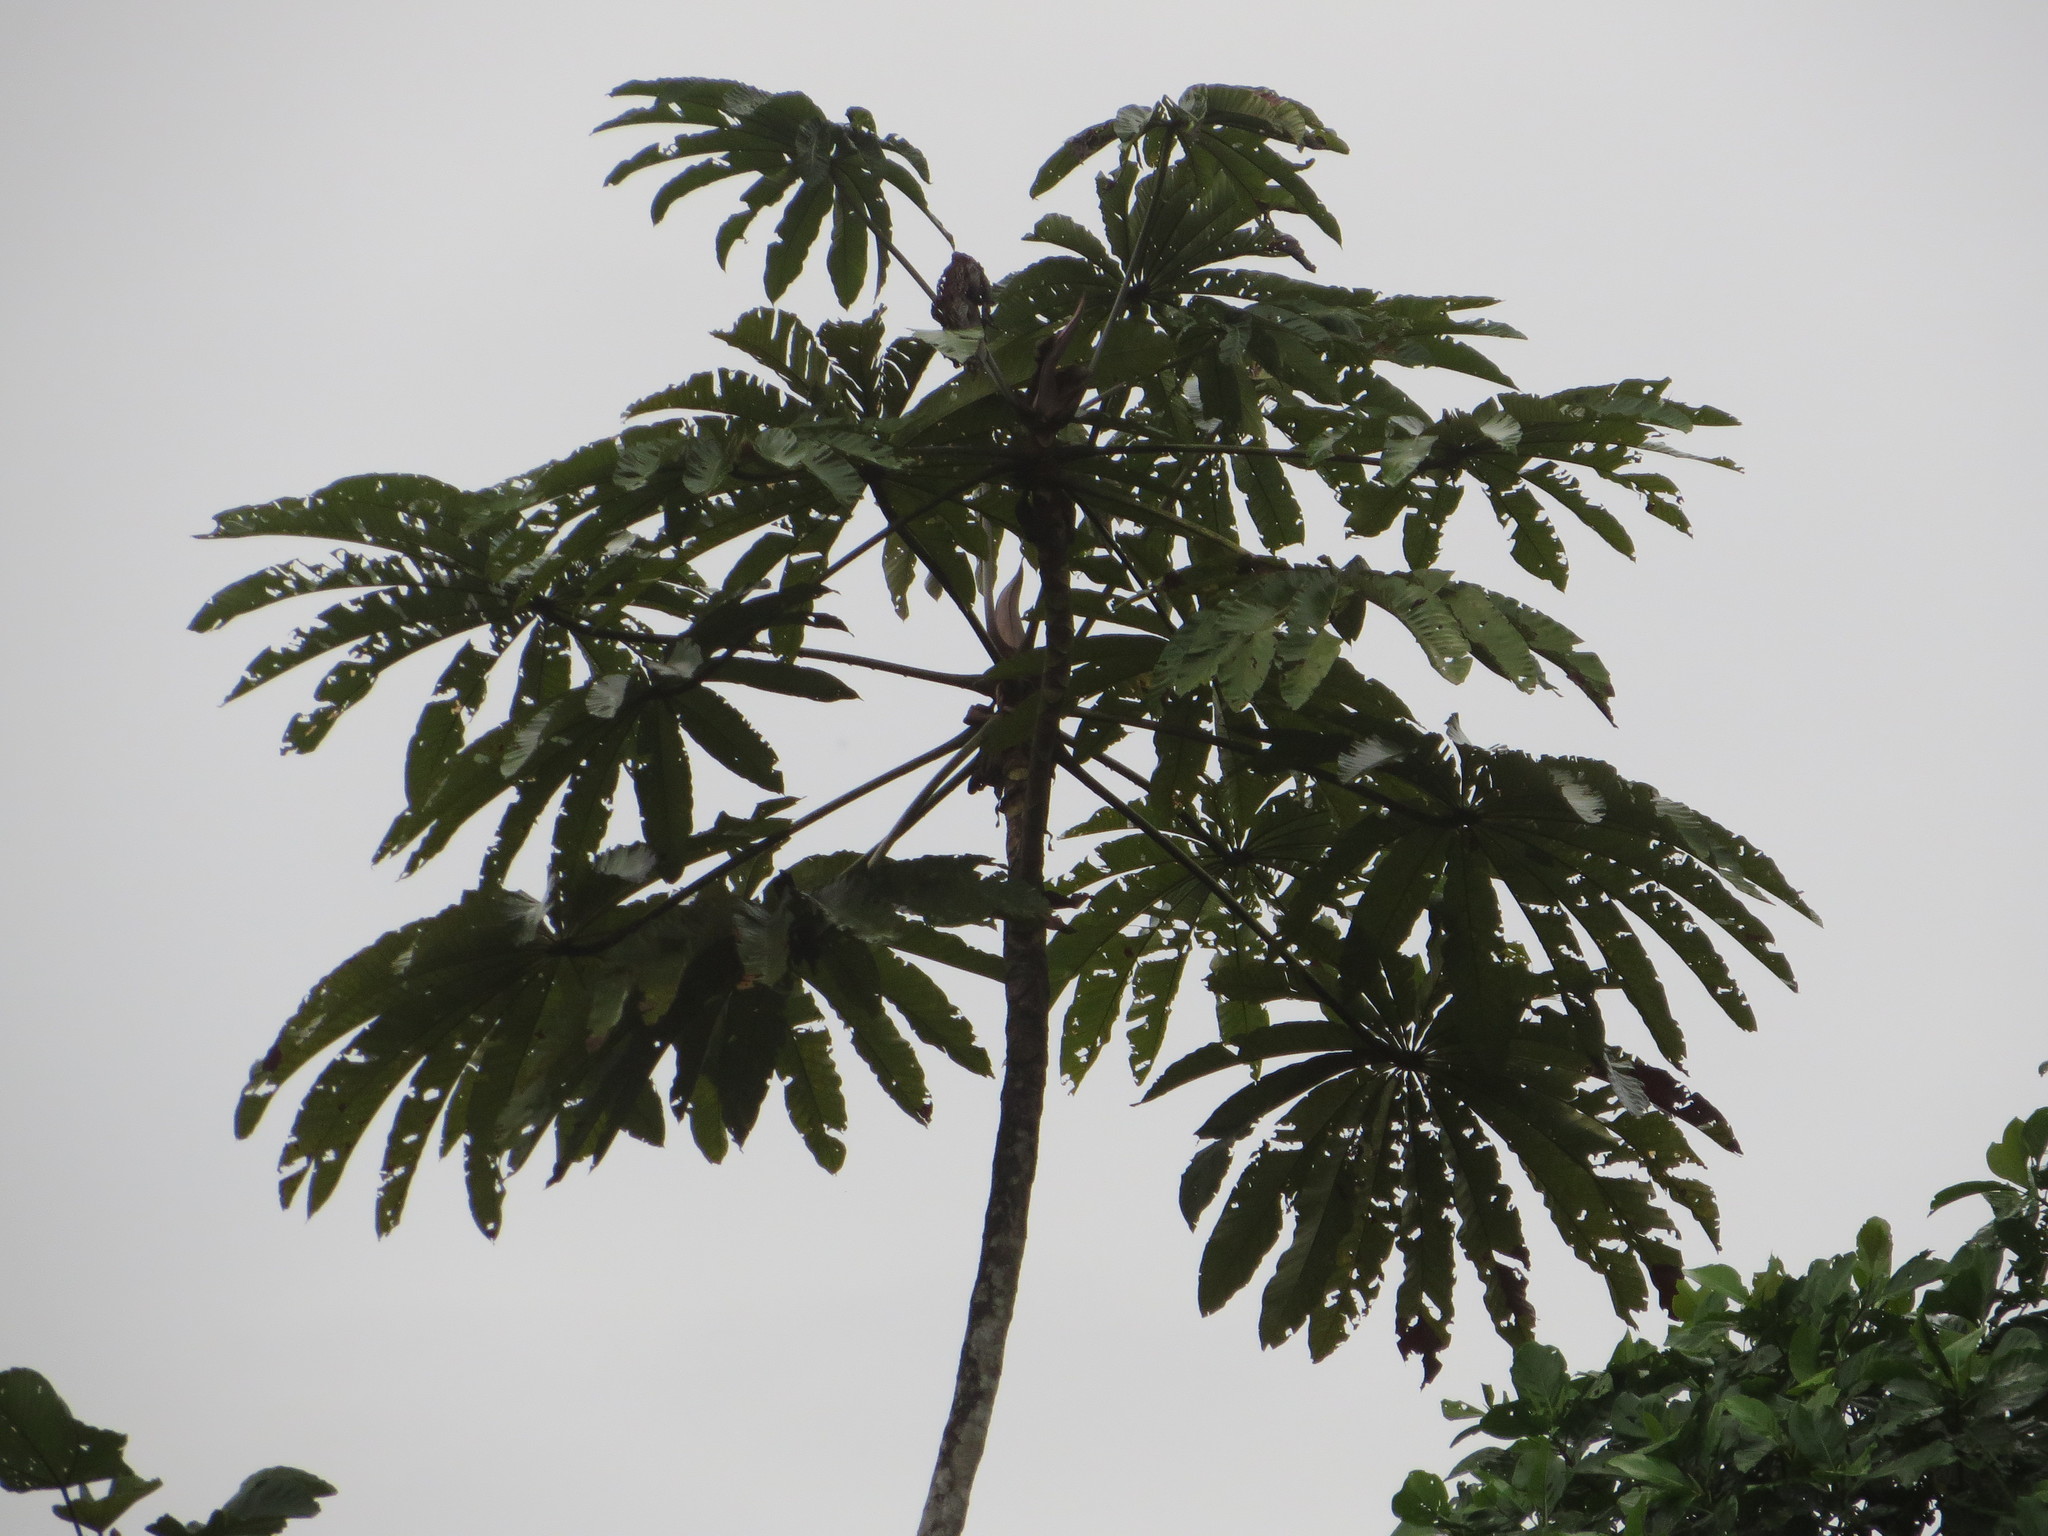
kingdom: Plantae
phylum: Tracheophyta
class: Magnoliopsida
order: Rosales
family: Urticaceae
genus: Cecropia
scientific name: Cecropia sciadophylla
